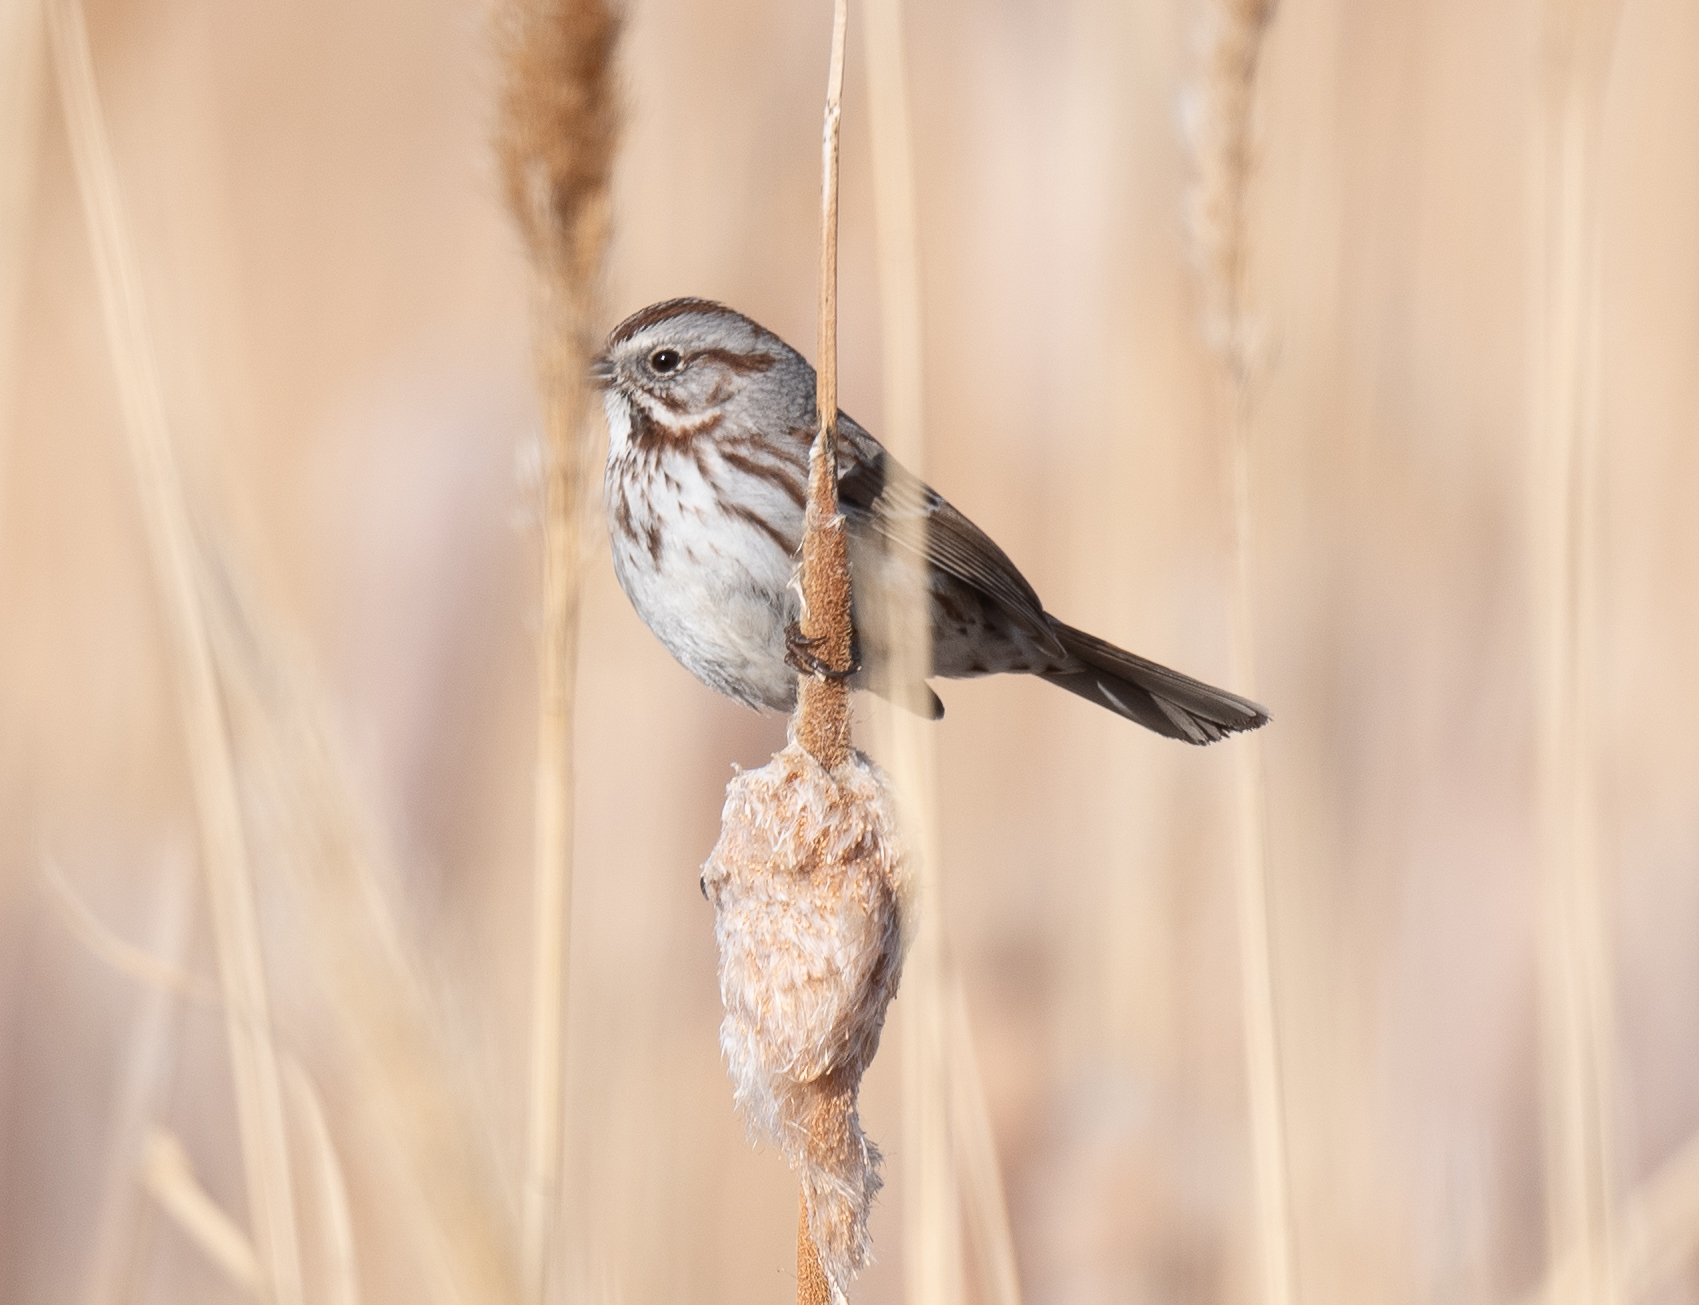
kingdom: Animalia
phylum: Chordata
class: Aves
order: Passeriformes
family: Passerellidae
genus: Melospiza
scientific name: Melospiza melodia
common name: Song sparrow
